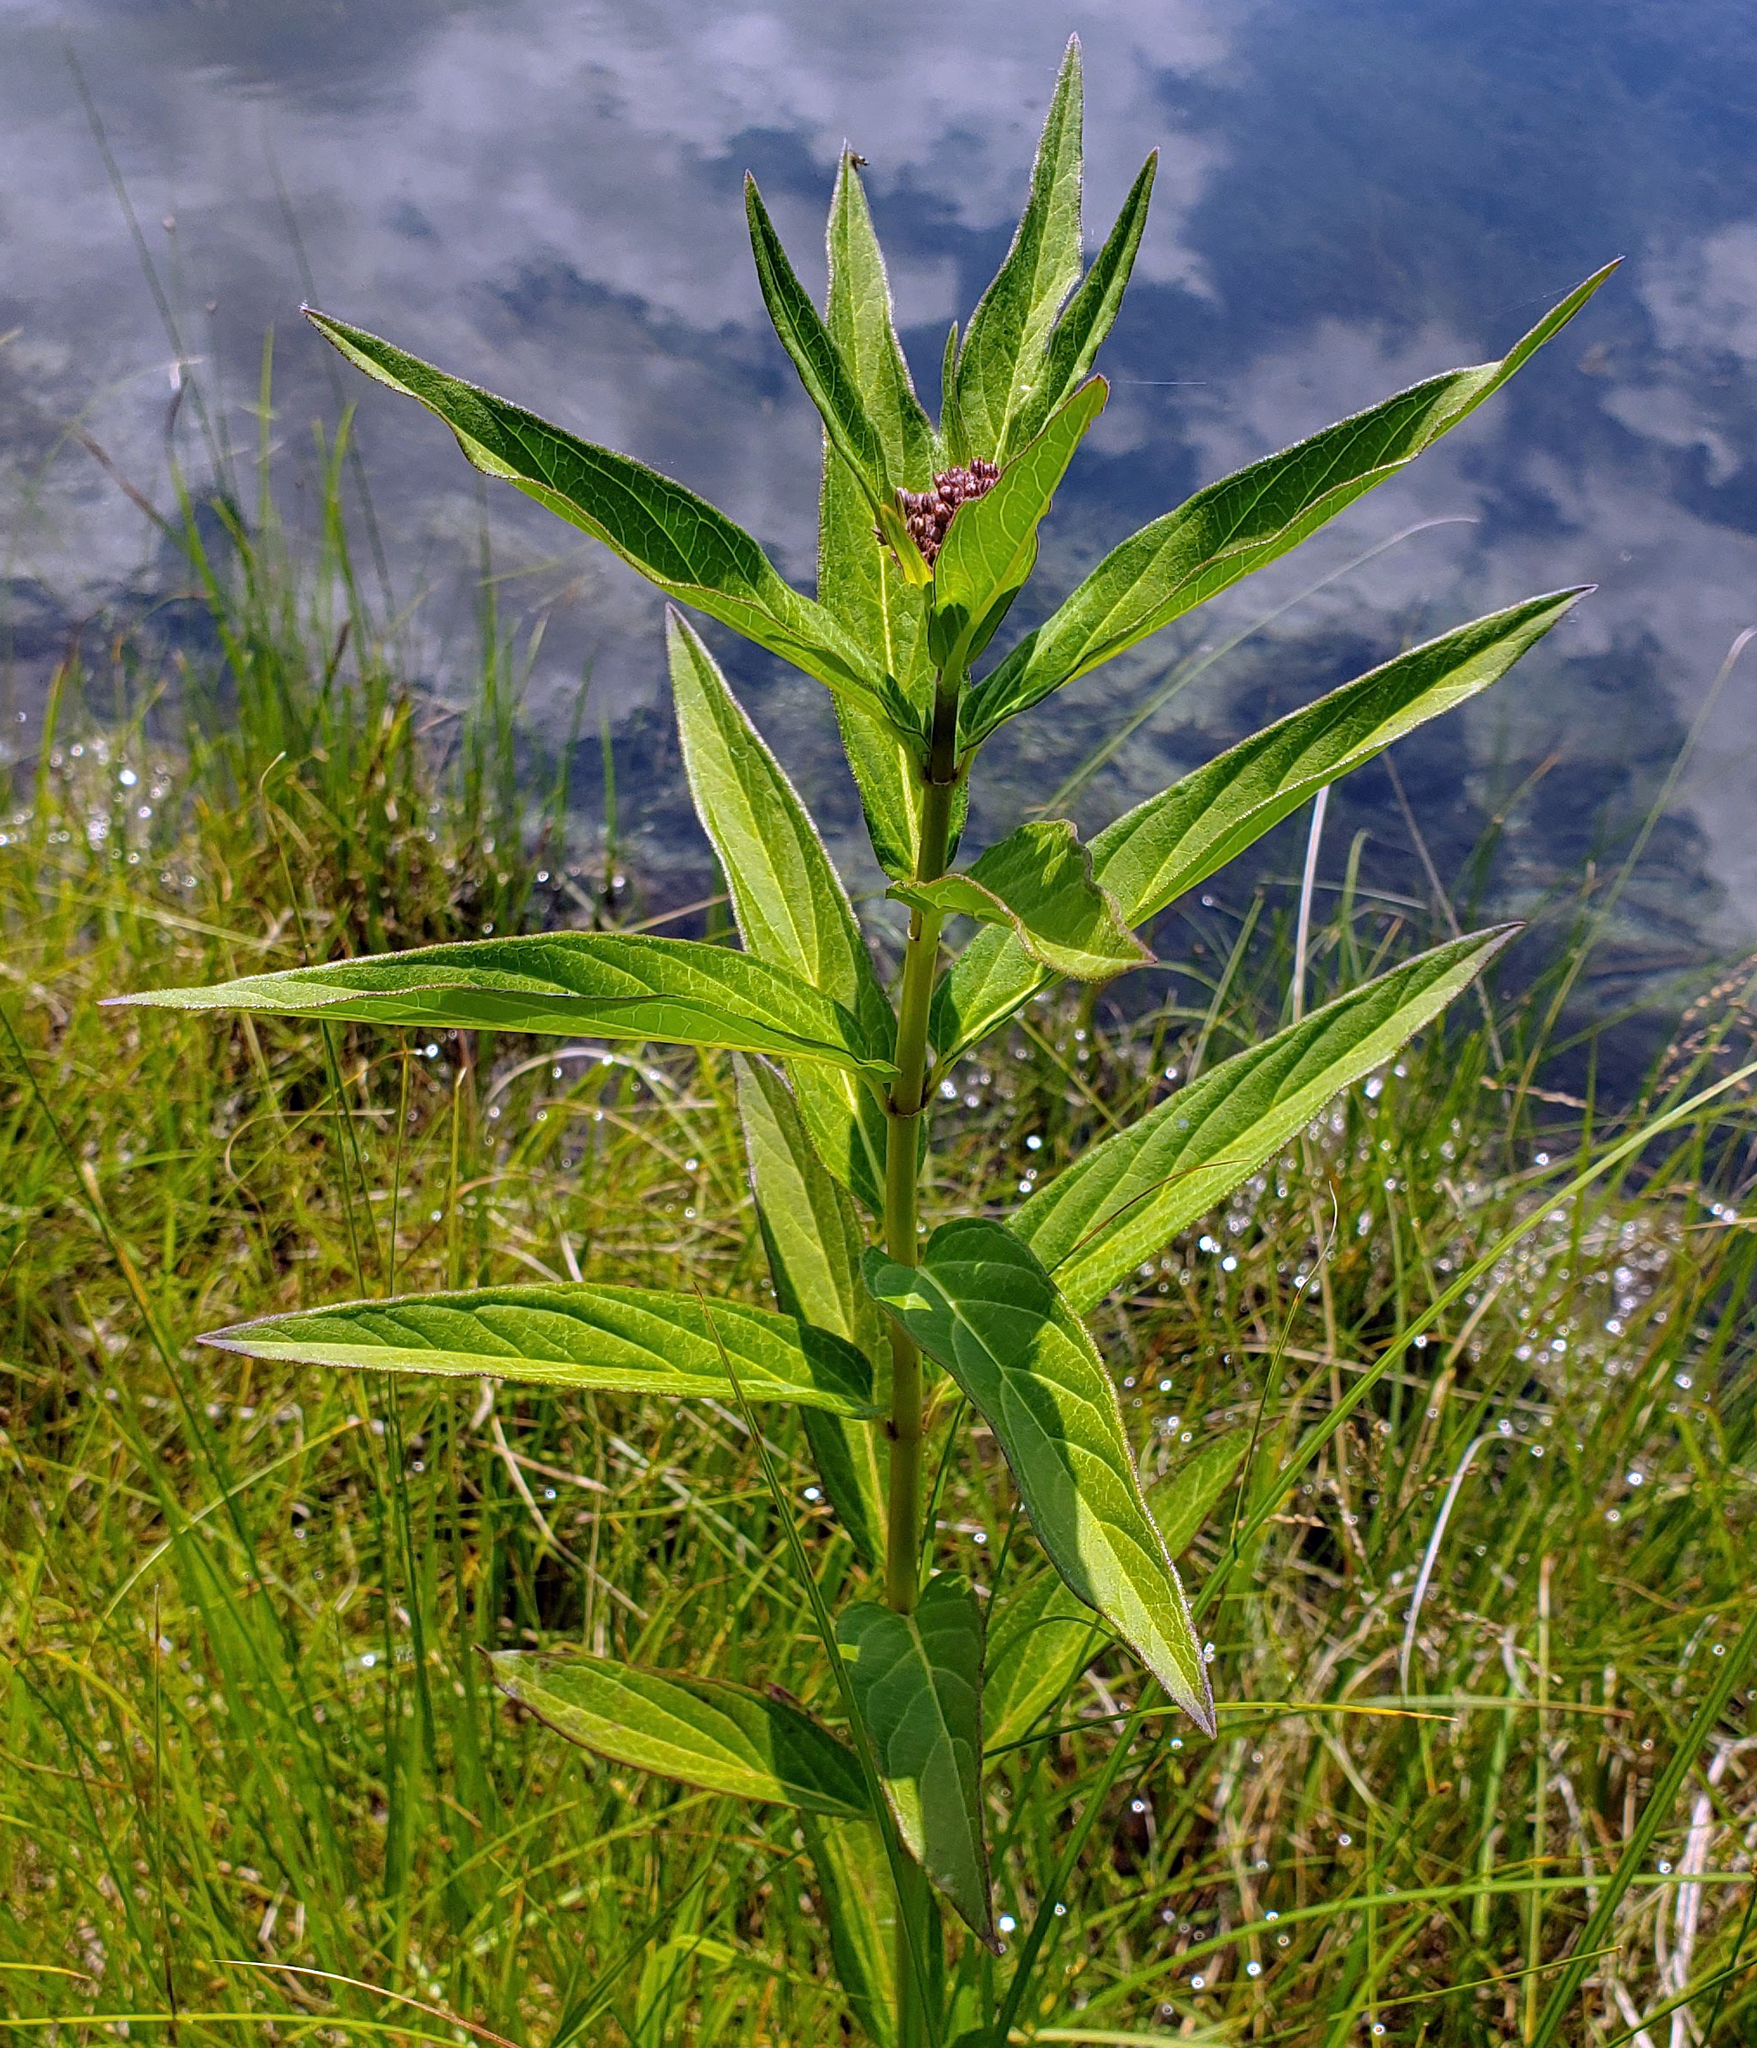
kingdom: Plantae
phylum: Tracheophyta
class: Magnoliopsida
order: Gentianales
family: Apocynaceae
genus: Asclepias
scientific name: Asclepias incarnata
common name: Swamp milkweed
